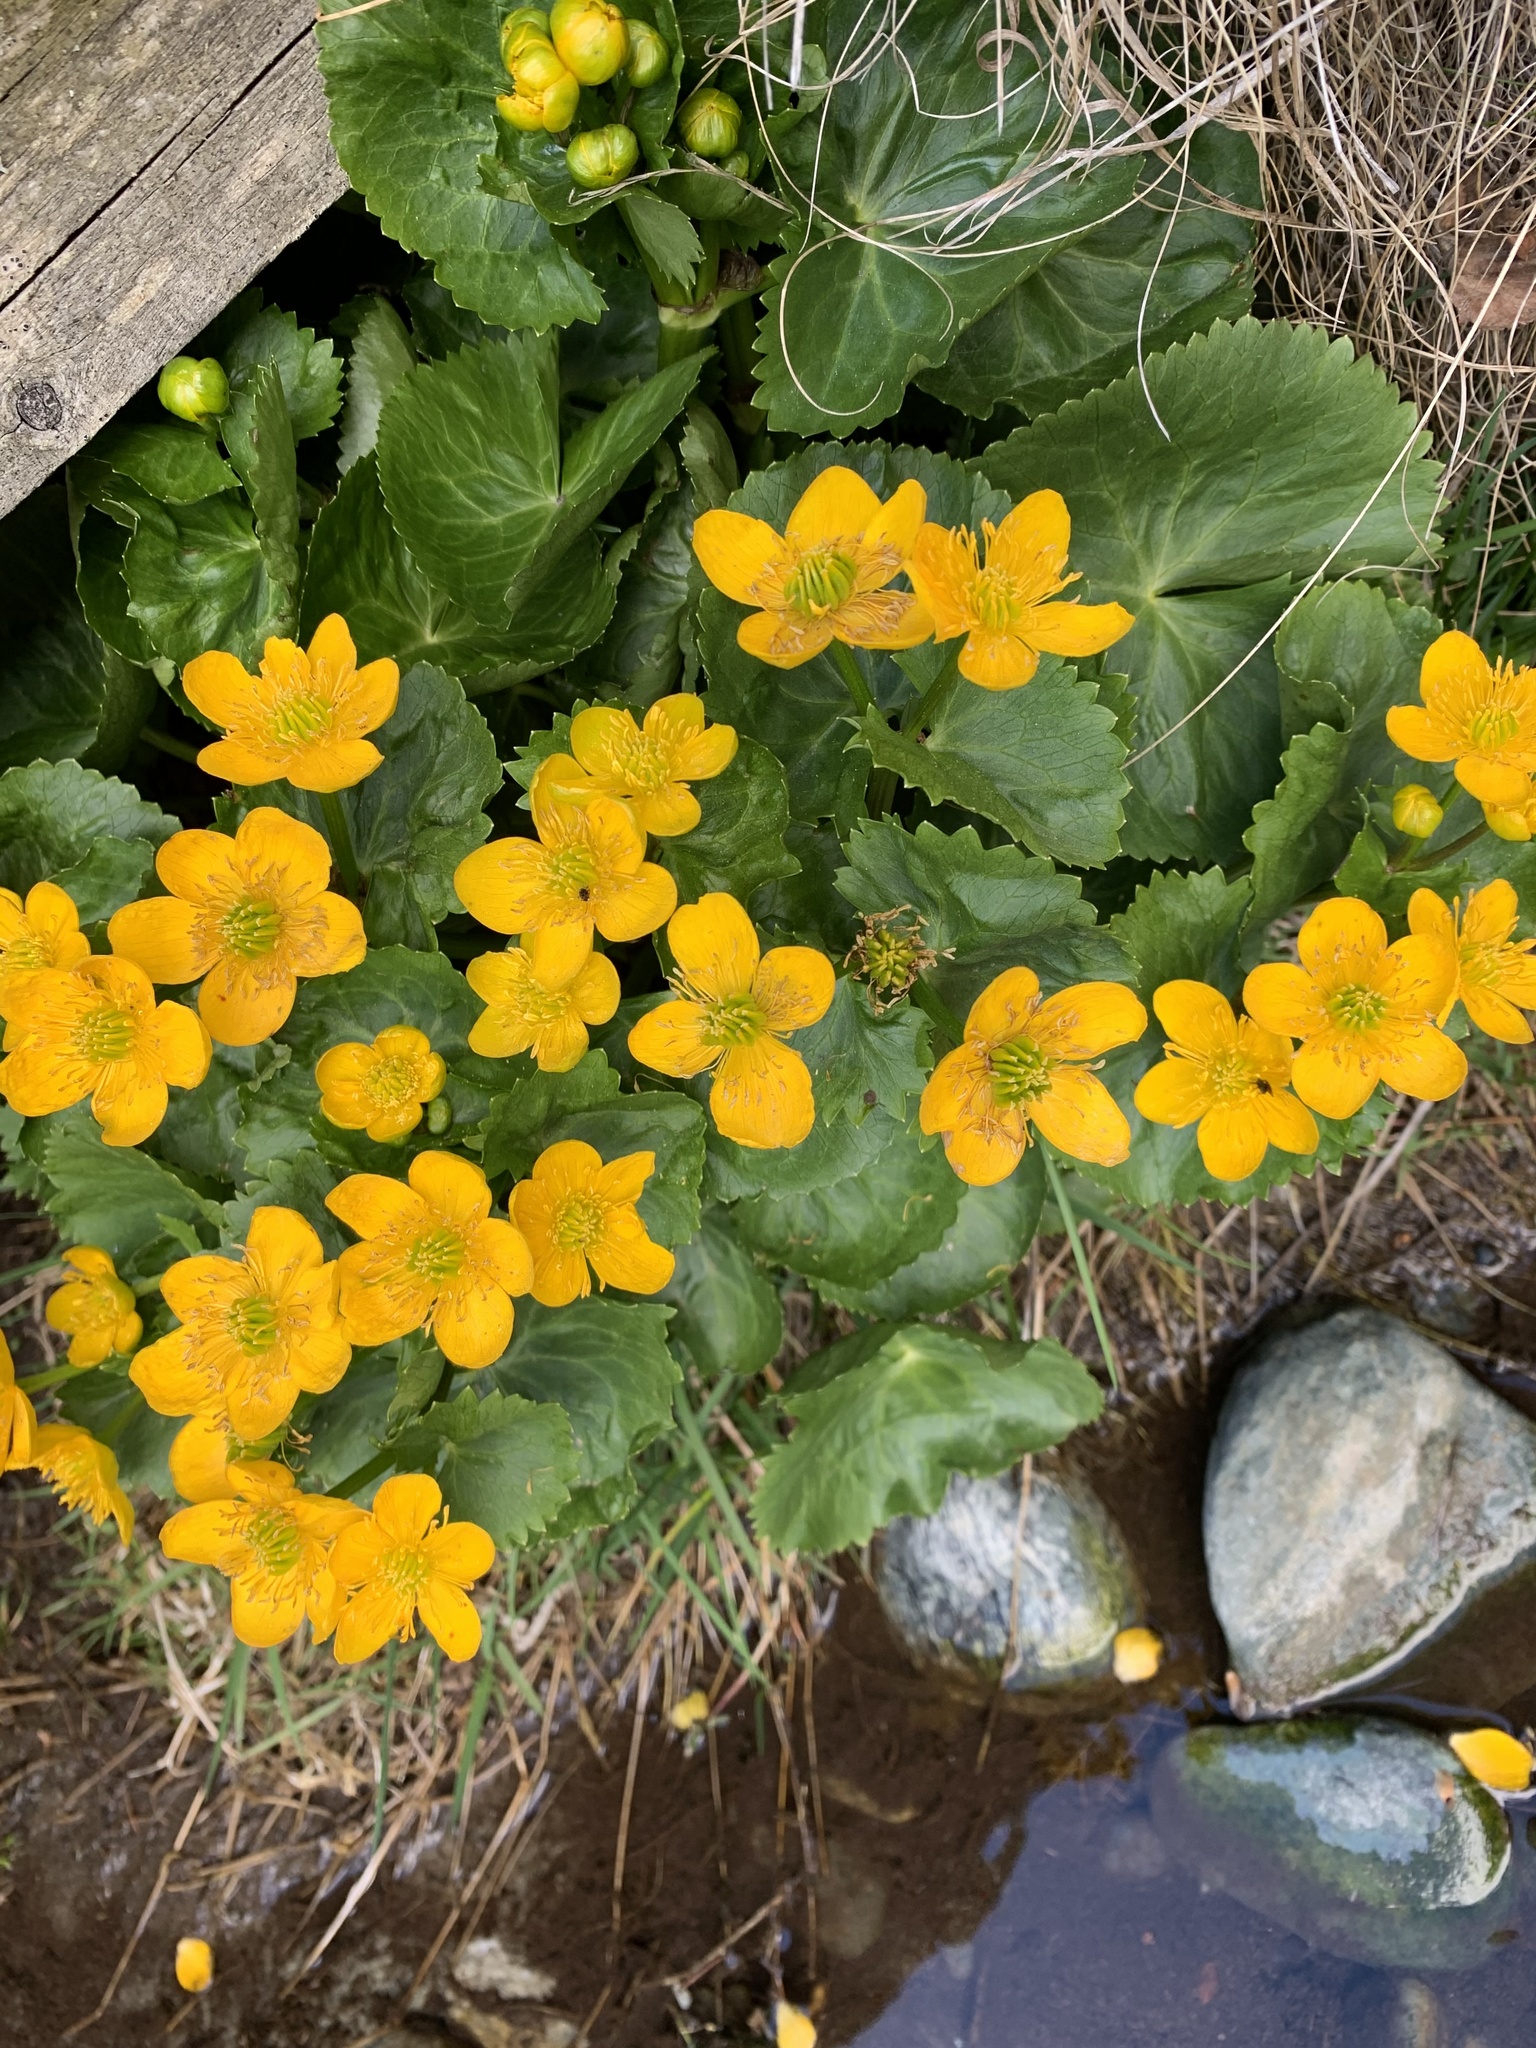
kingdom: Plantae
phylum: Tracheophyta
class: Magnoliopsida
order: Ranunculales
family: Ranunculaceae
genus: Caltha
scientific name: Caltha palustris
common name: Marsh marigold
